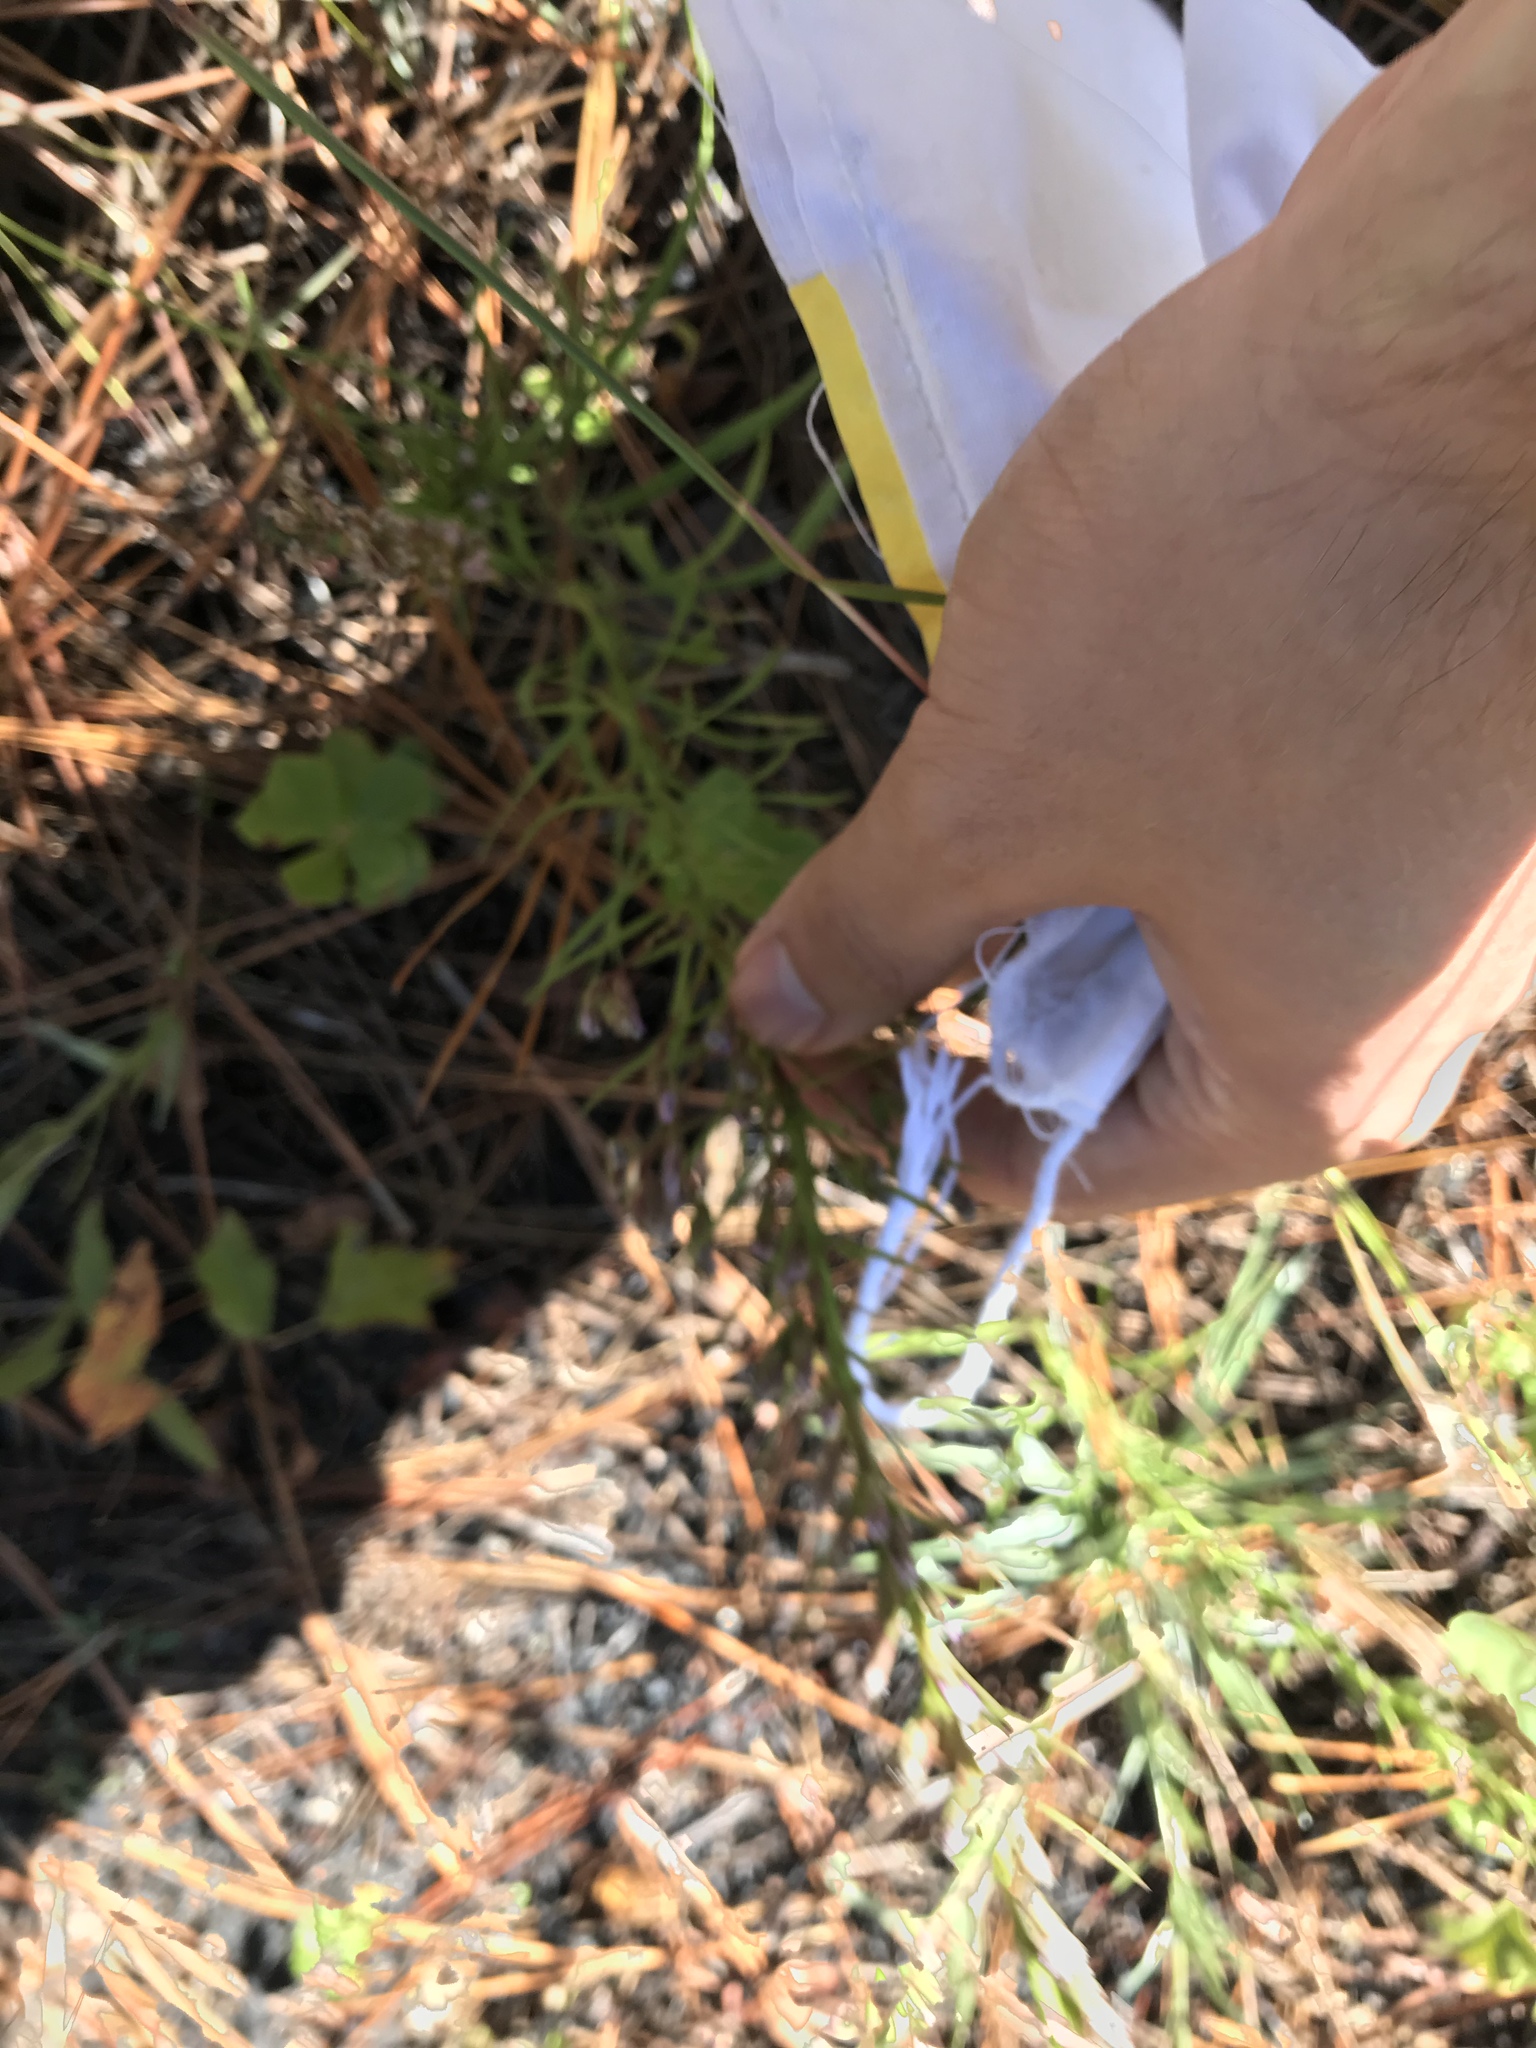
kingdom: Plantae
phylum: Tracheophyta
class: Magnoliopsida
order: Asterales
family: Asteraceae
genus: Liatris
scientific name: Liatris cokeri
